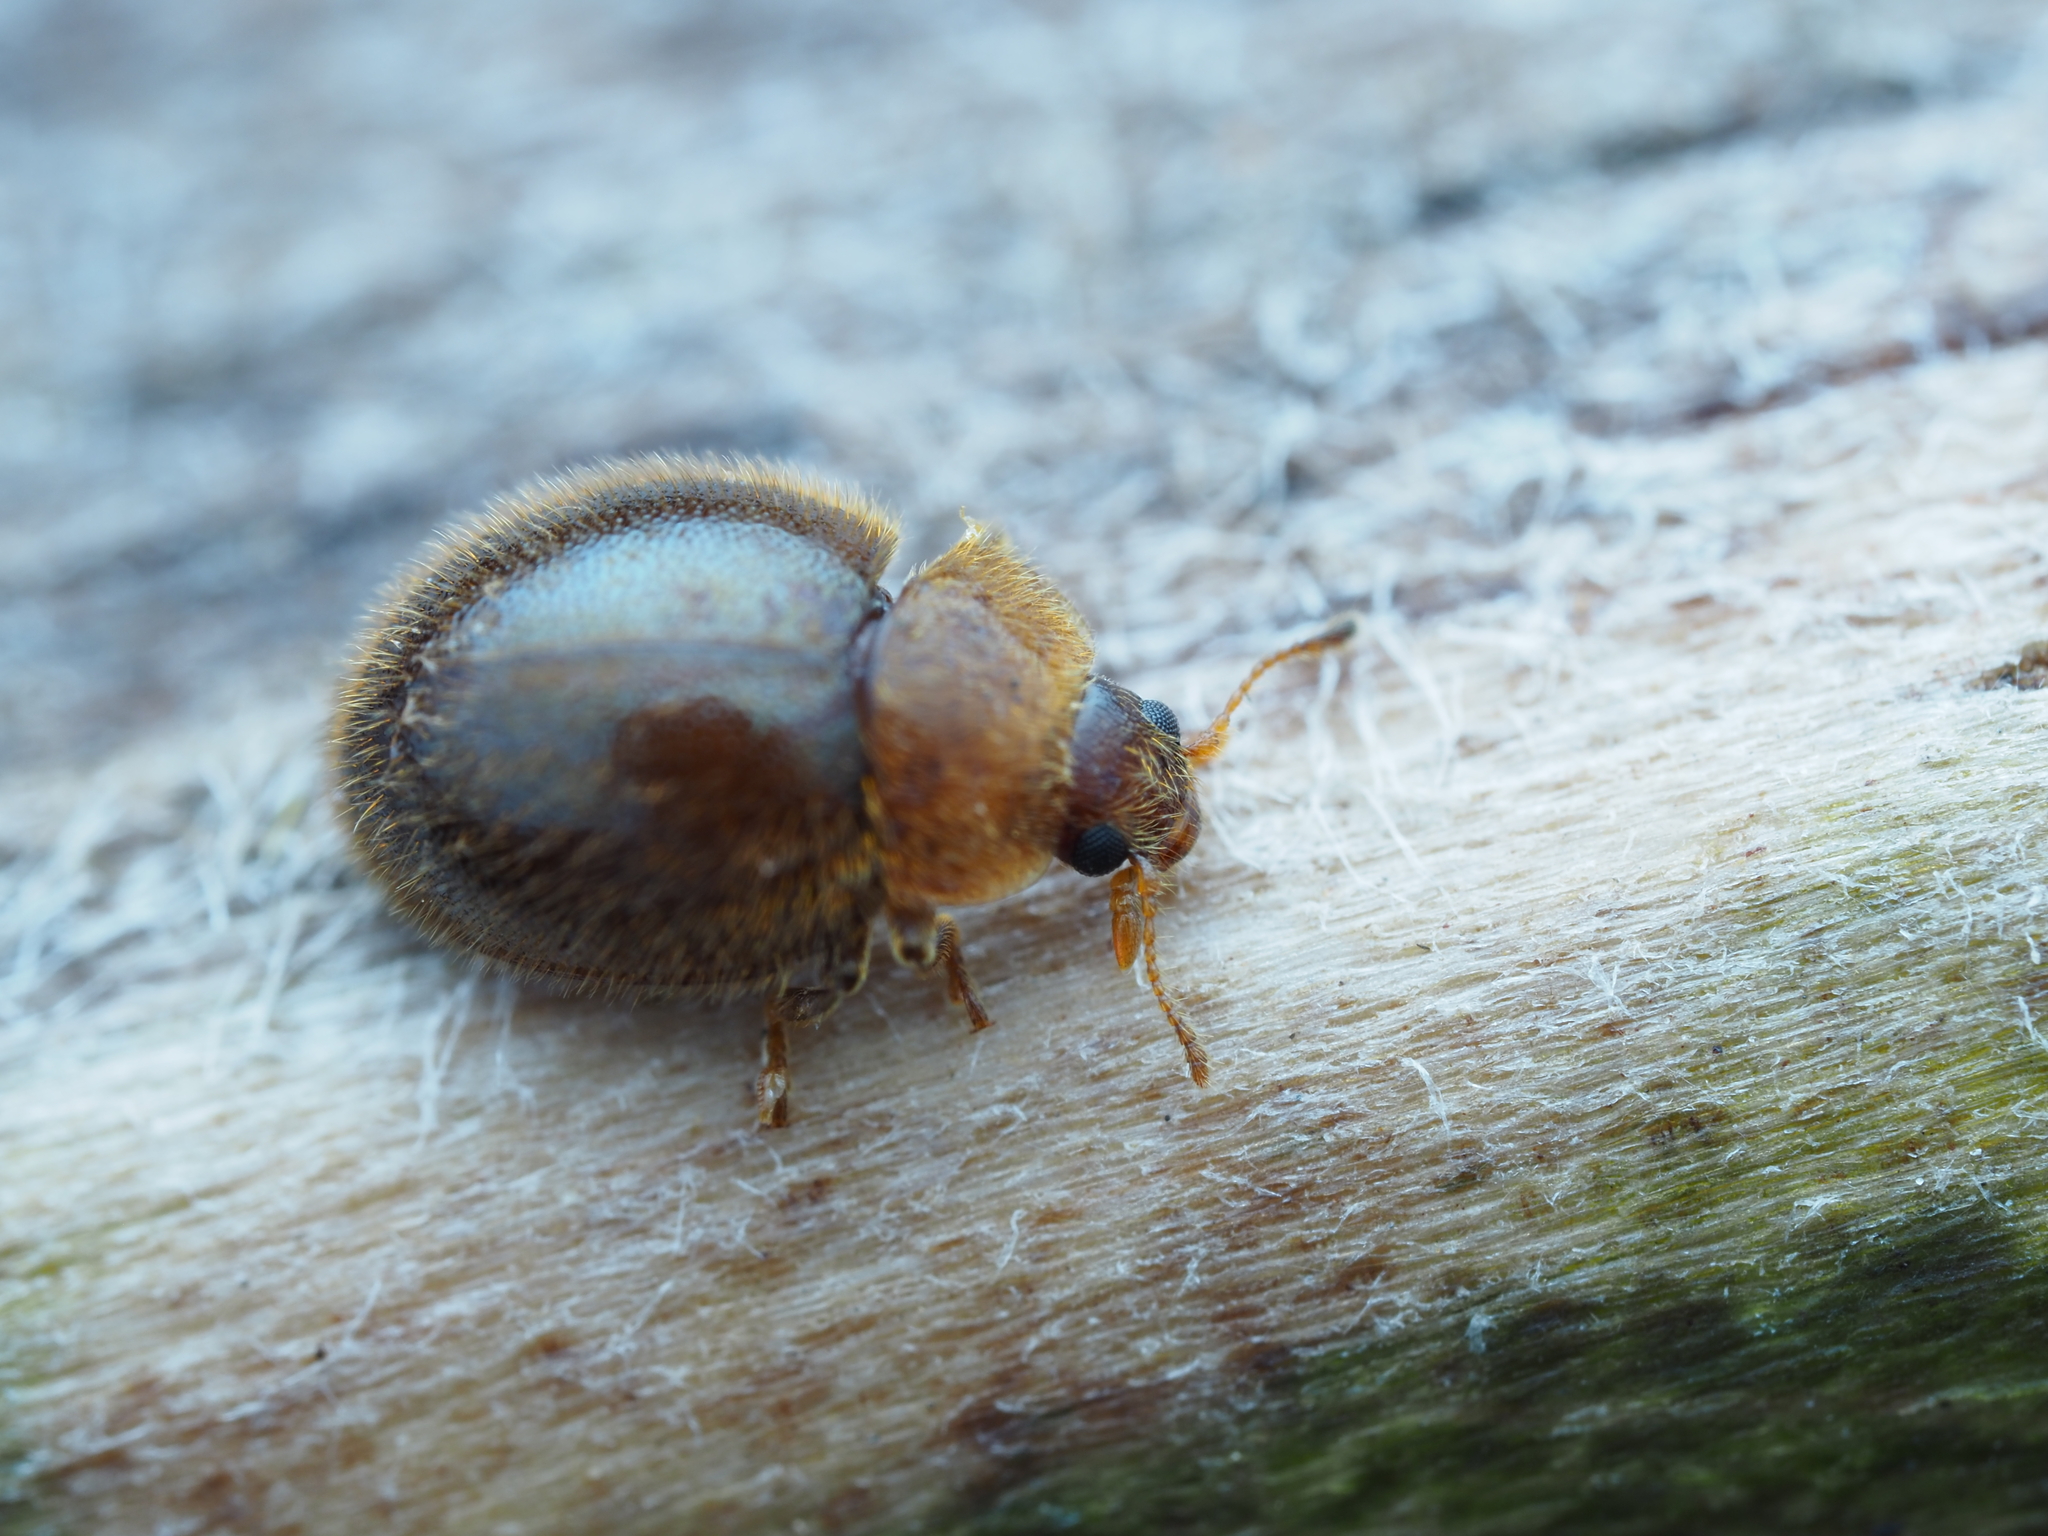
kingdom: Animalia
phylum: Arthropoda
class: Insecta
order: Coleoptera
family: Coccinellidae
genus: Adoxellus
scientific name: Adoxellus
